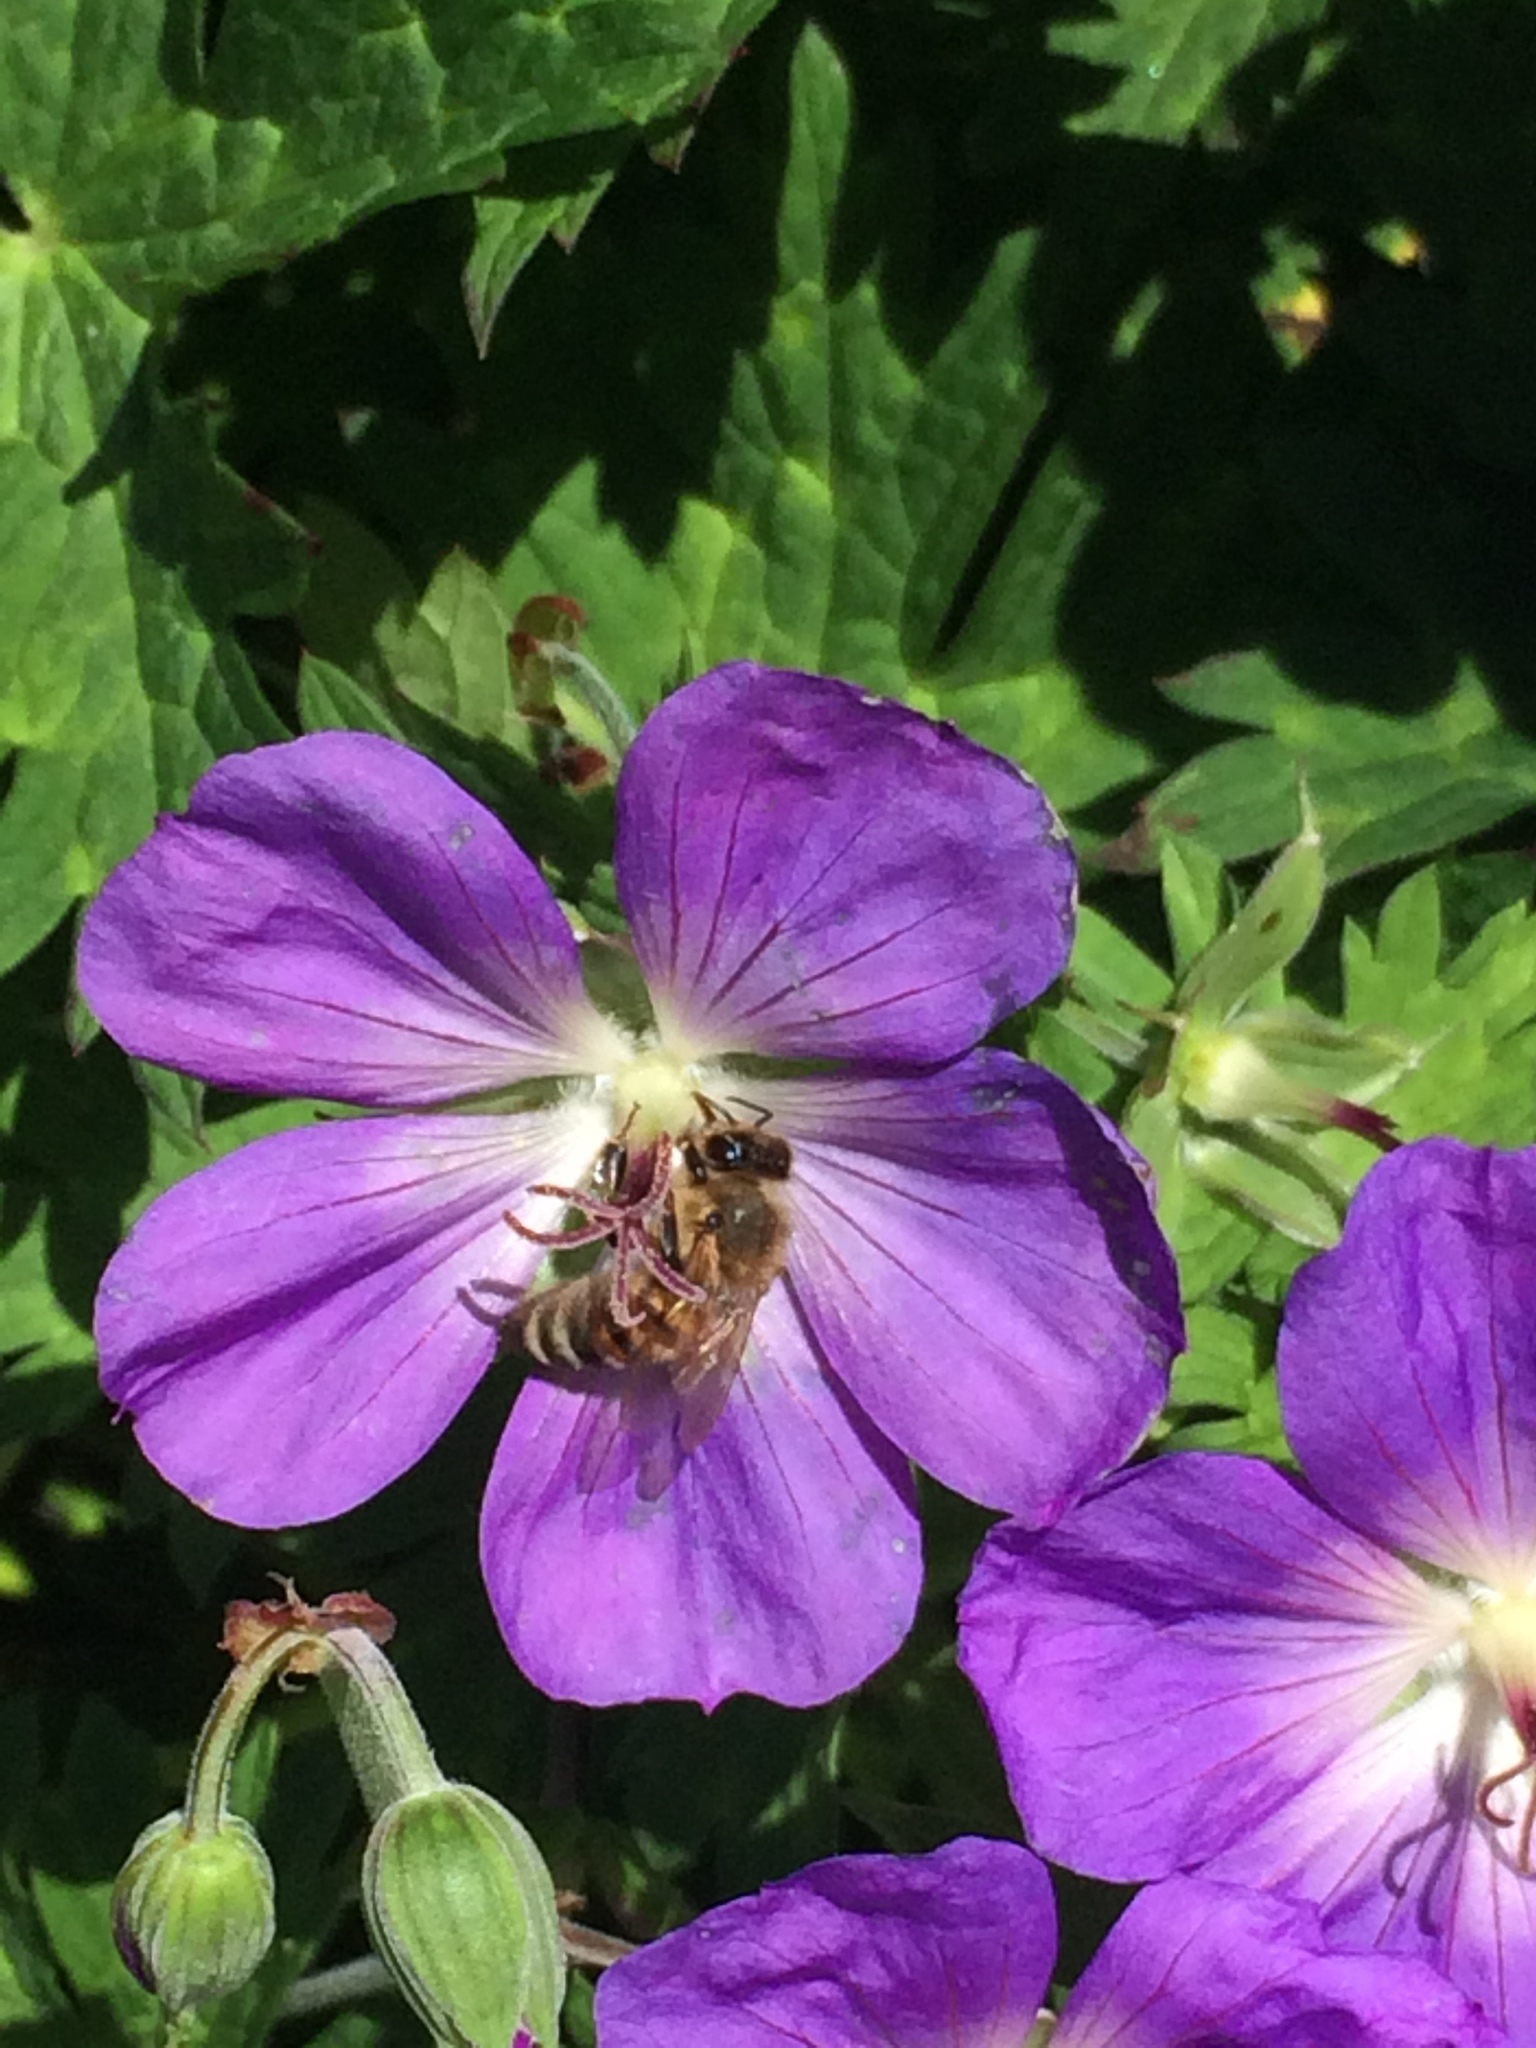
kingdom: Animalia
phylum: Arthropoda
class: Insecta
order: Hymenoptera
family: Apidae
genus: Apis
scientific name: Apis mellifera
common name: Honey bee
